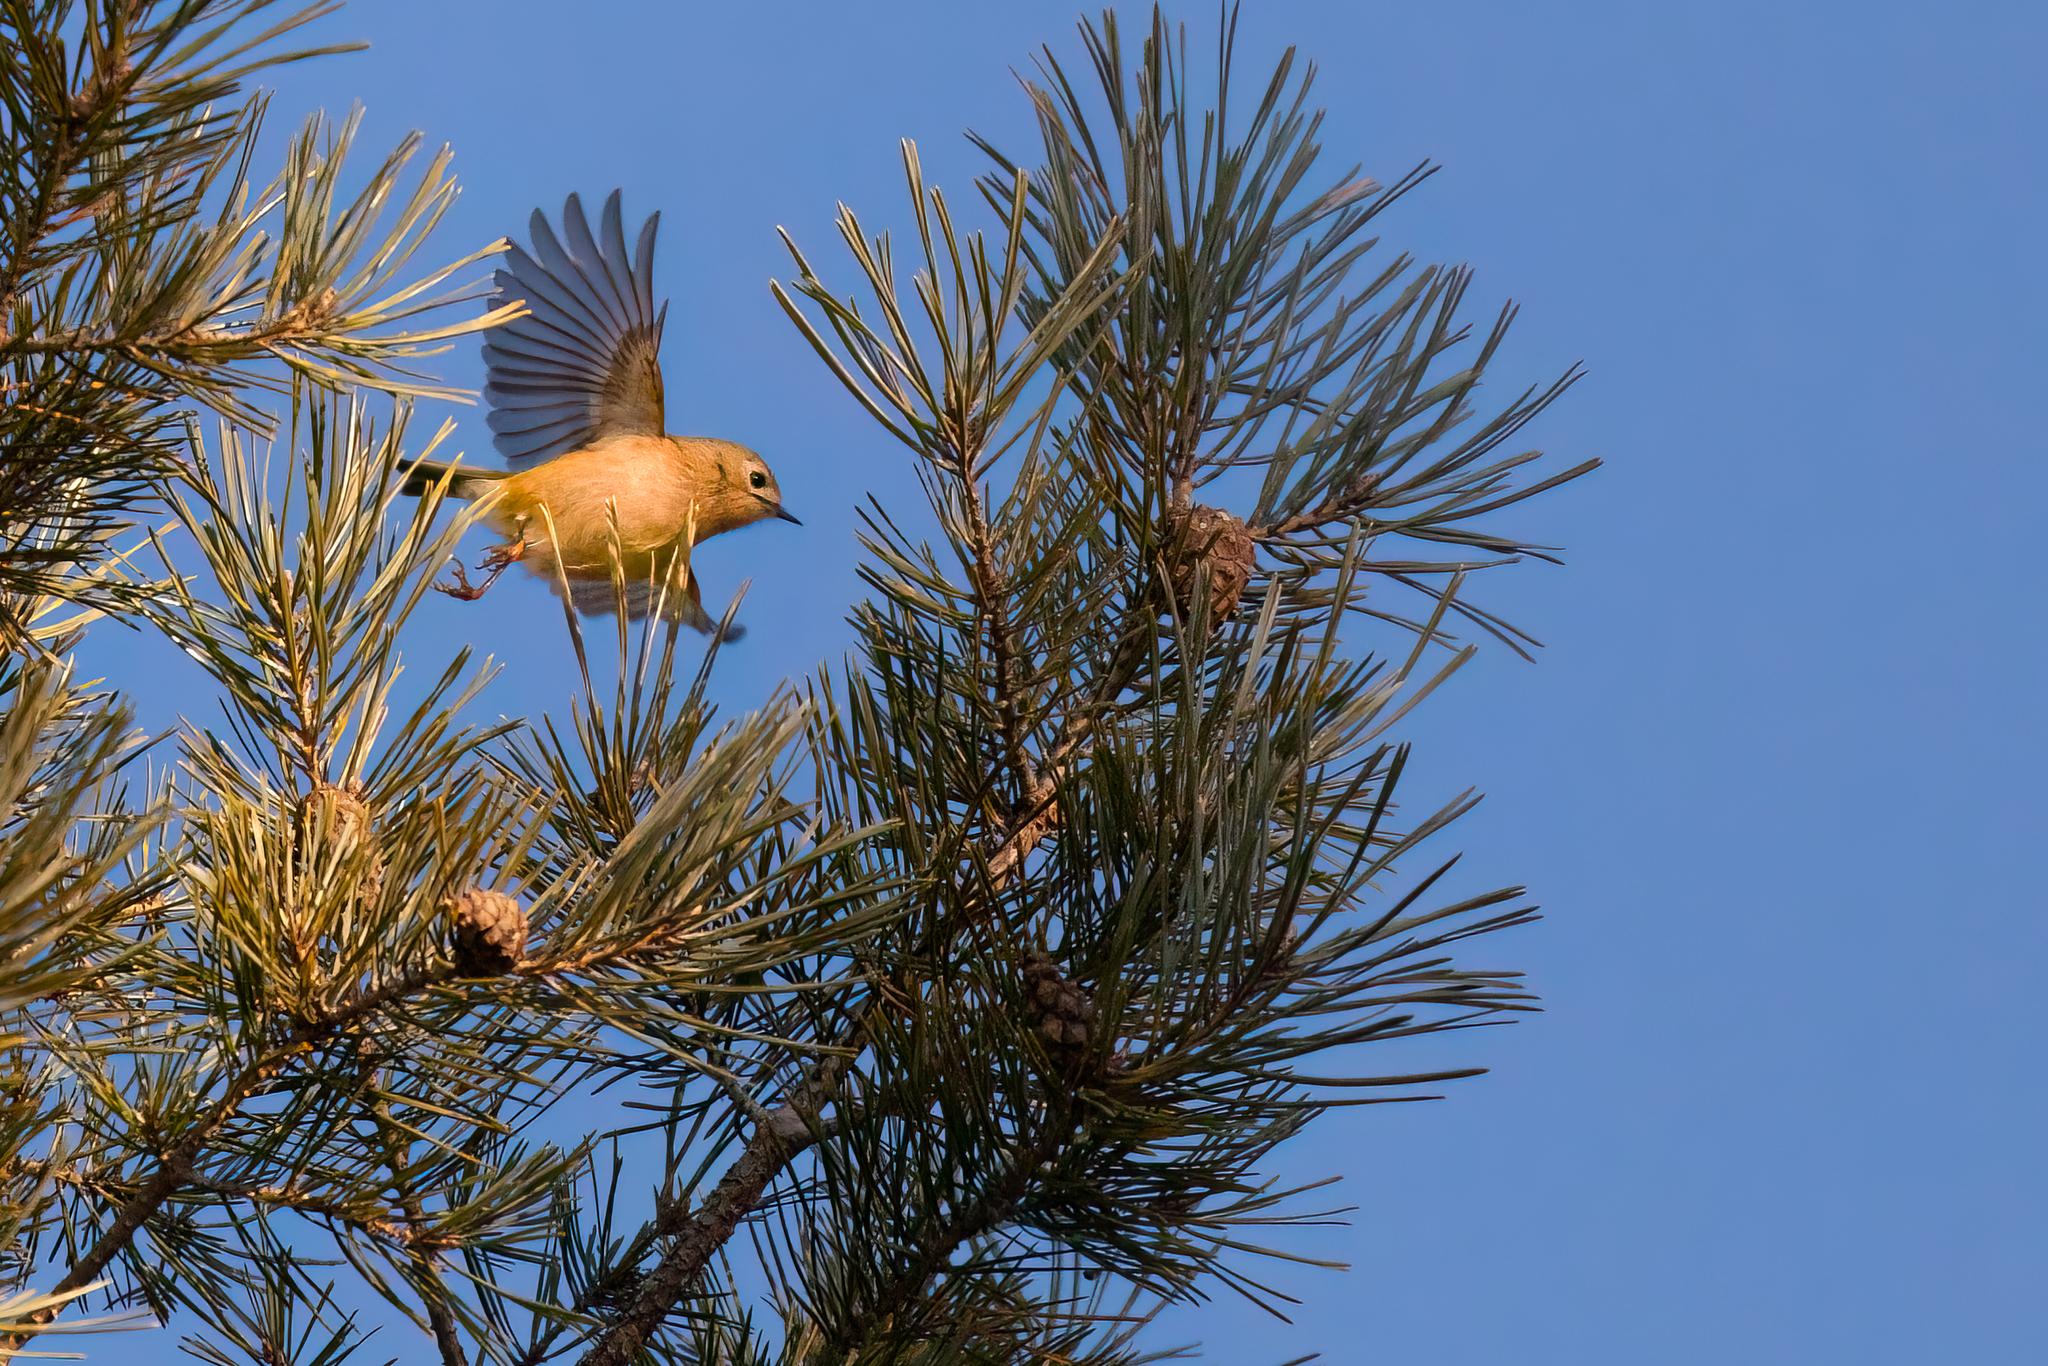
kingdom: Animalia
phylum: Chordata
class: Aves
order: Passeriformes
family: Regulidae
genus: Regulus
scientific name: Regulus regulus
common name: Goldcrest
